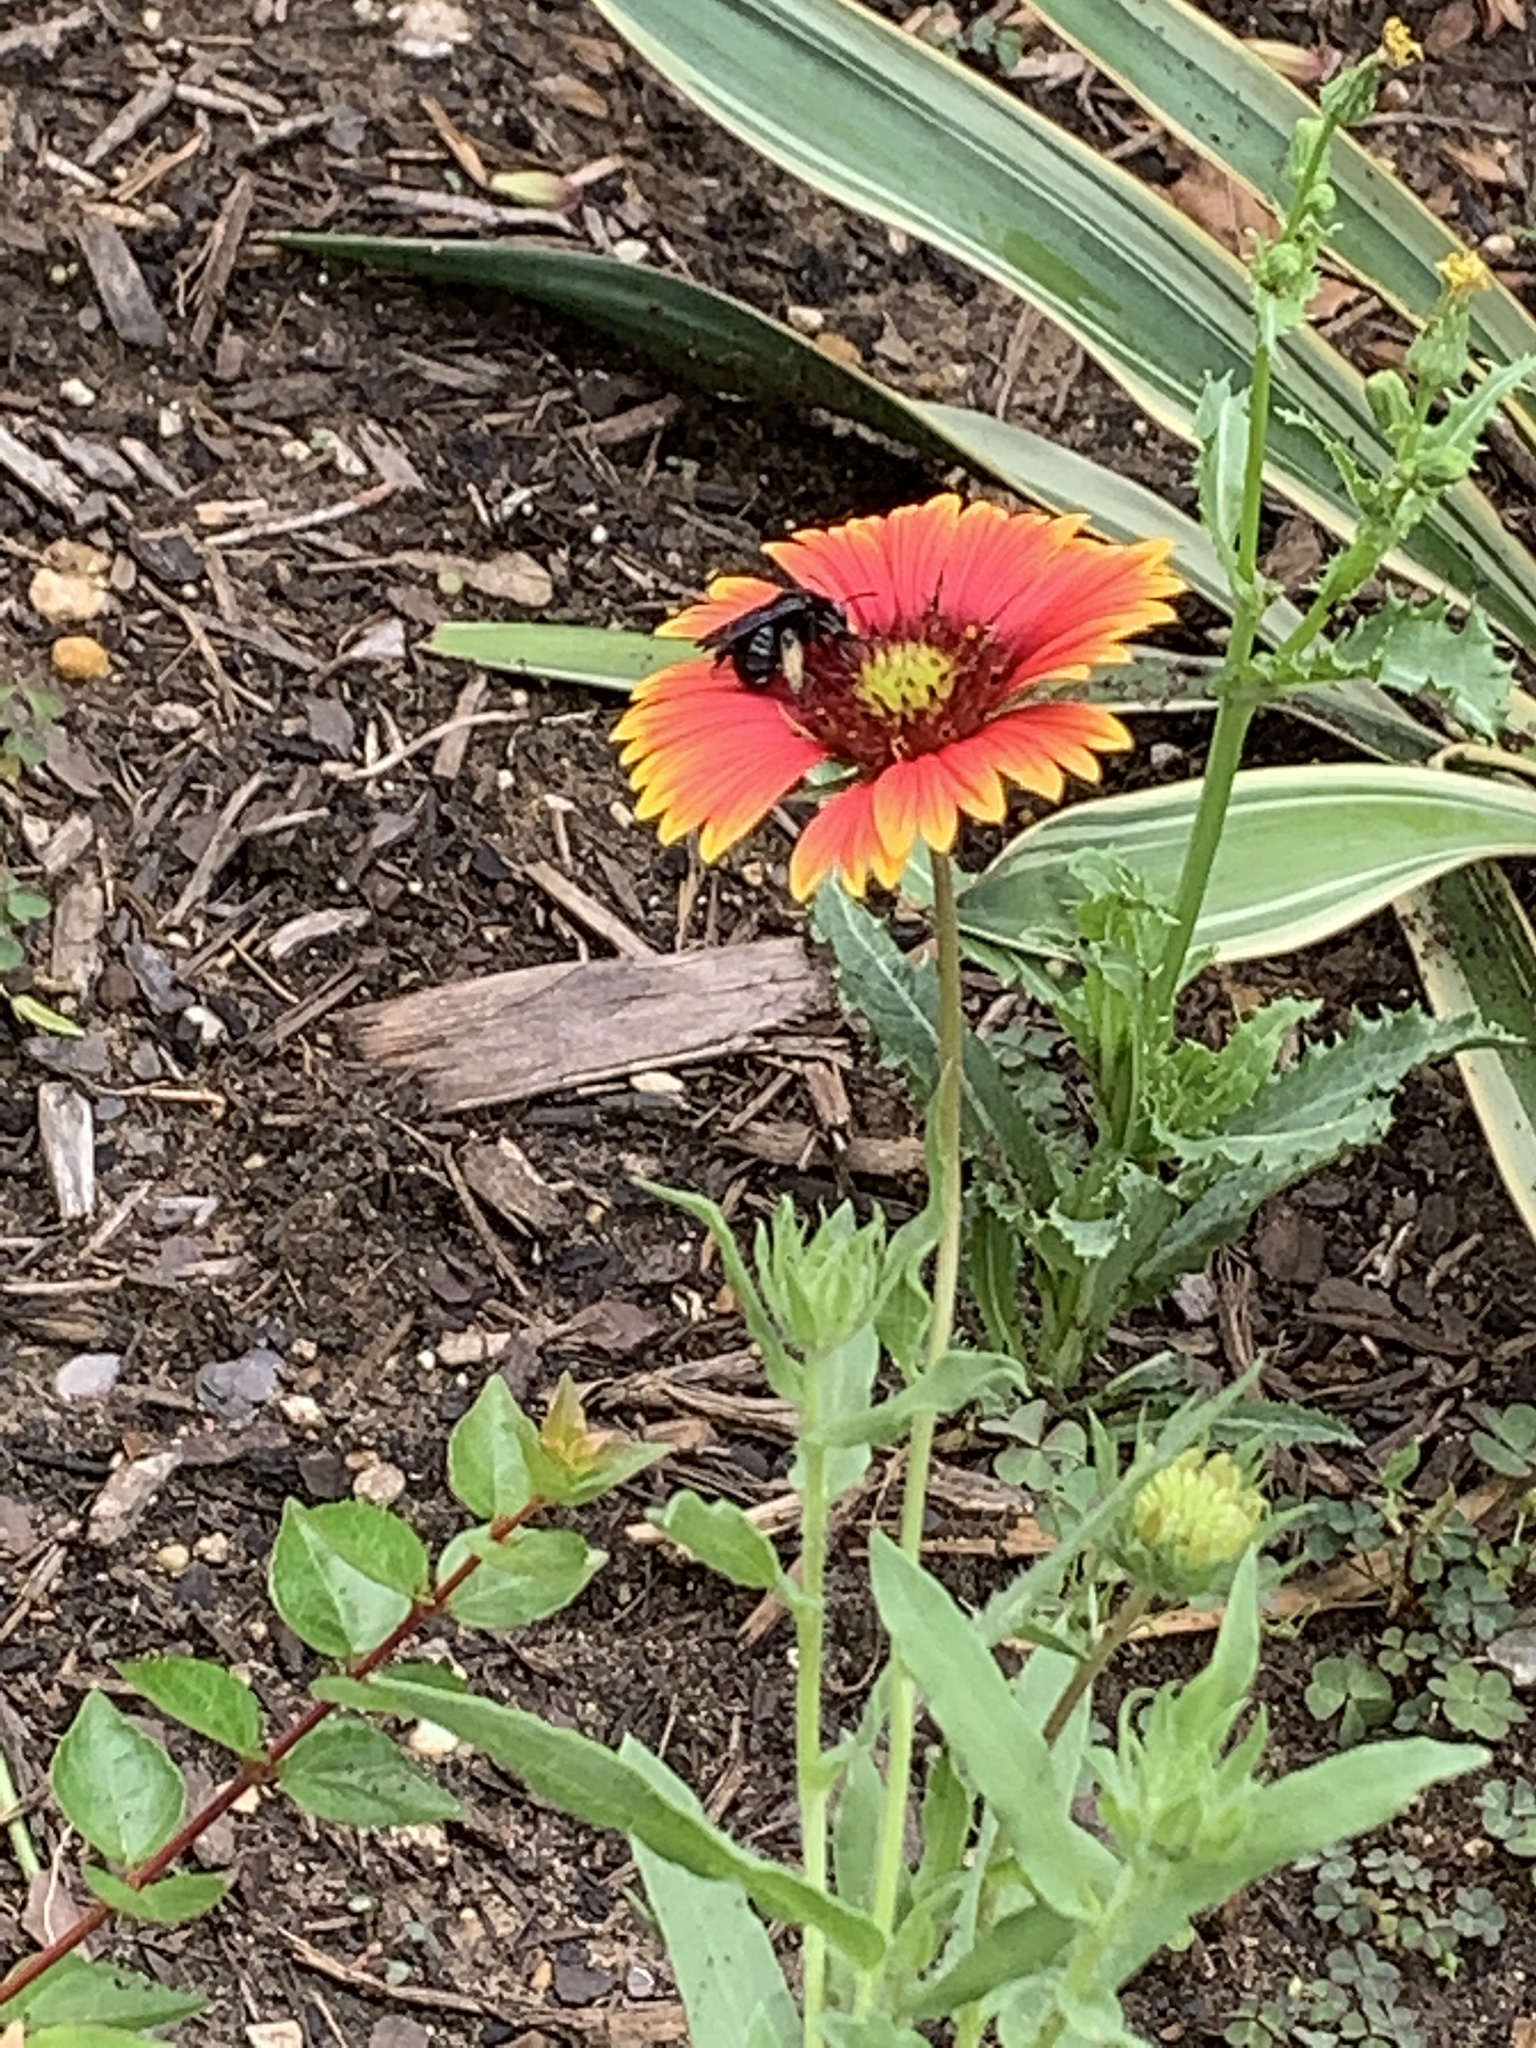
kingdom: Animalia
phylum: Arthropoda
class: Insecta
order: Hymenoptera
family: Apidae
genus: Melissodes
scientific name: Melissodes bimaculatus
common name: Two-spotted long-horned bee
